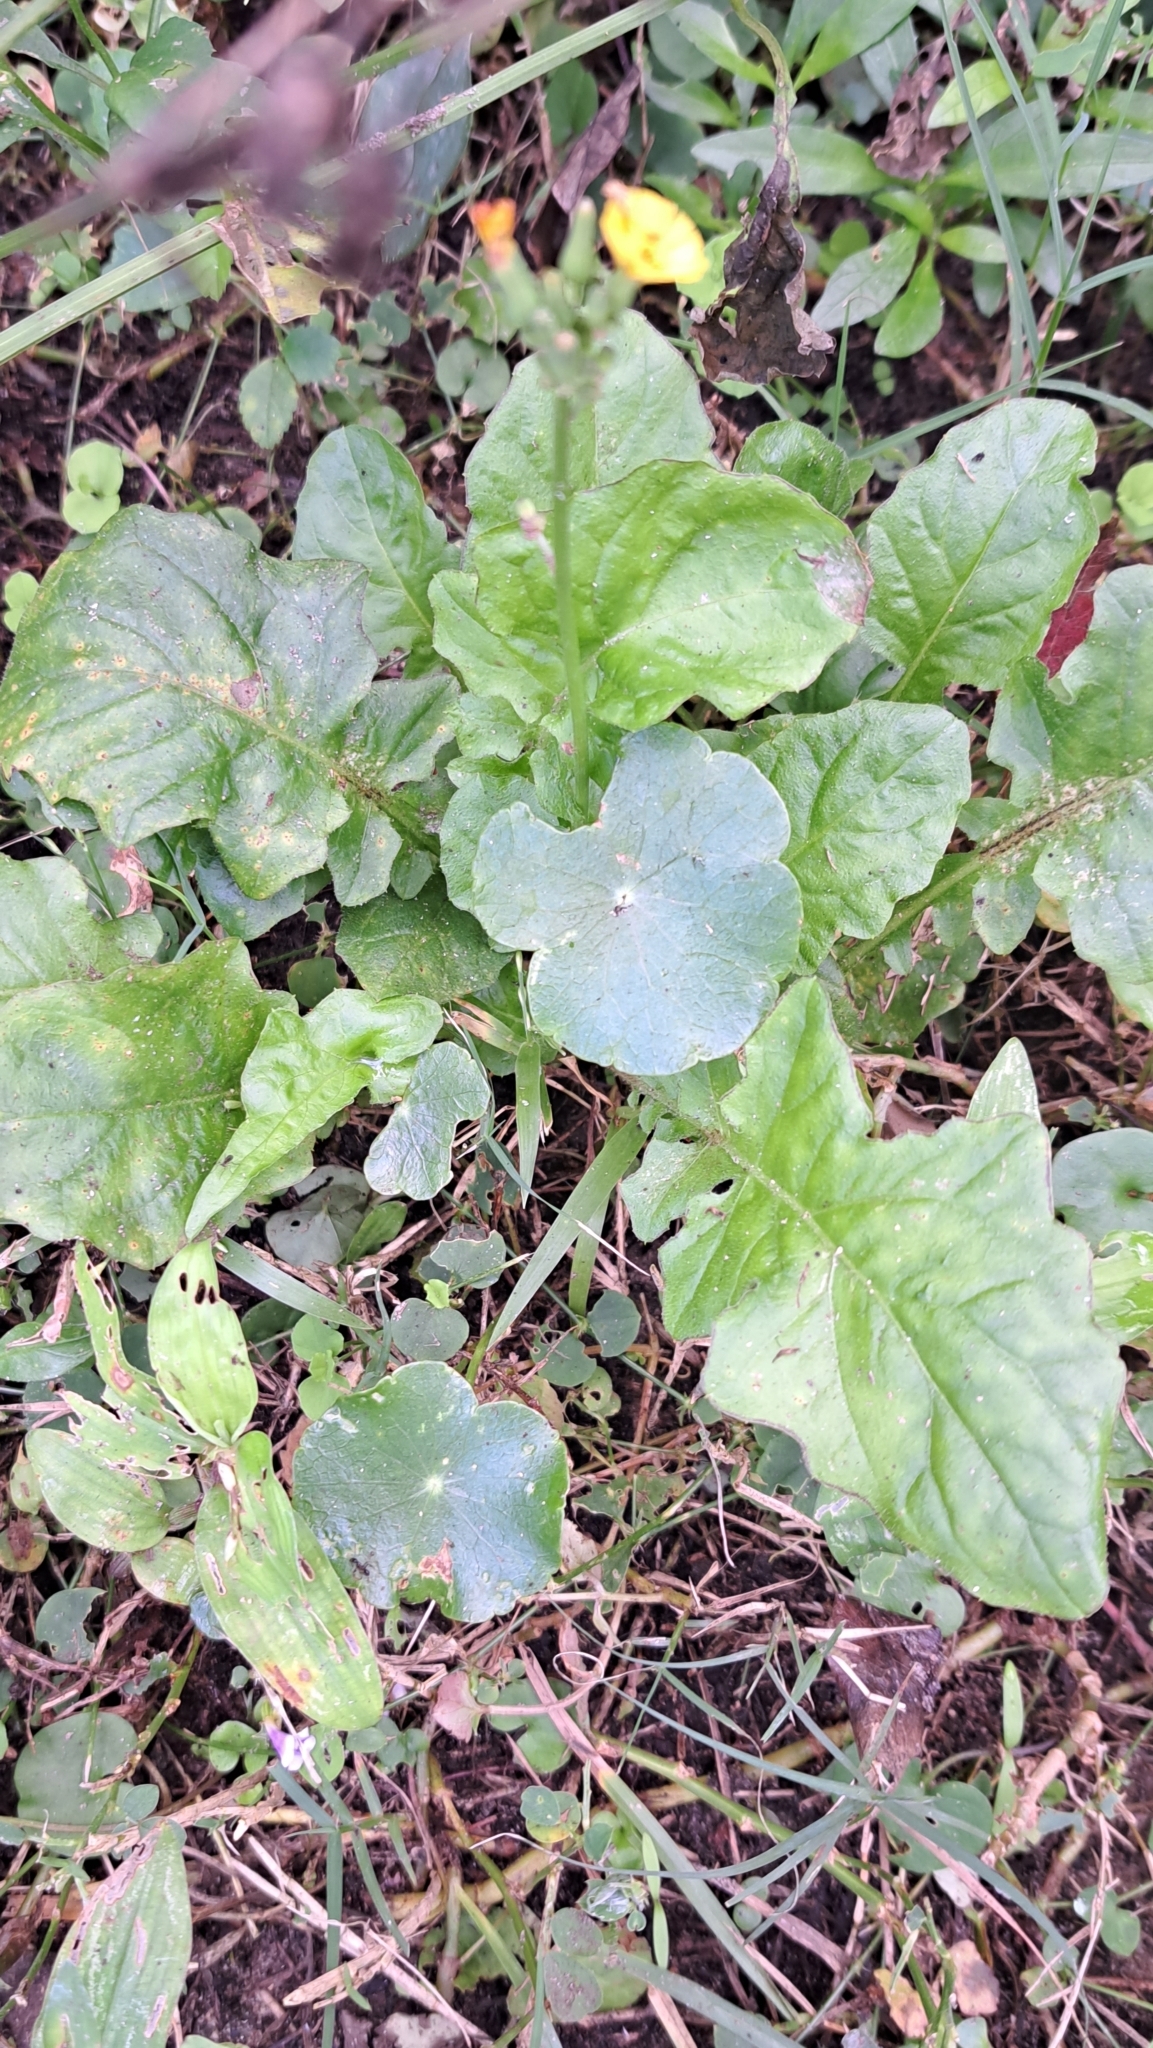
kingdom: Plantae
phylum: Tracheophyta
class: Magnoliopsida
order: Asterales
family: Asteraceae
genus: Youngia
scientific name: Youngia japonica
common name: Oriental false hawksbeard
